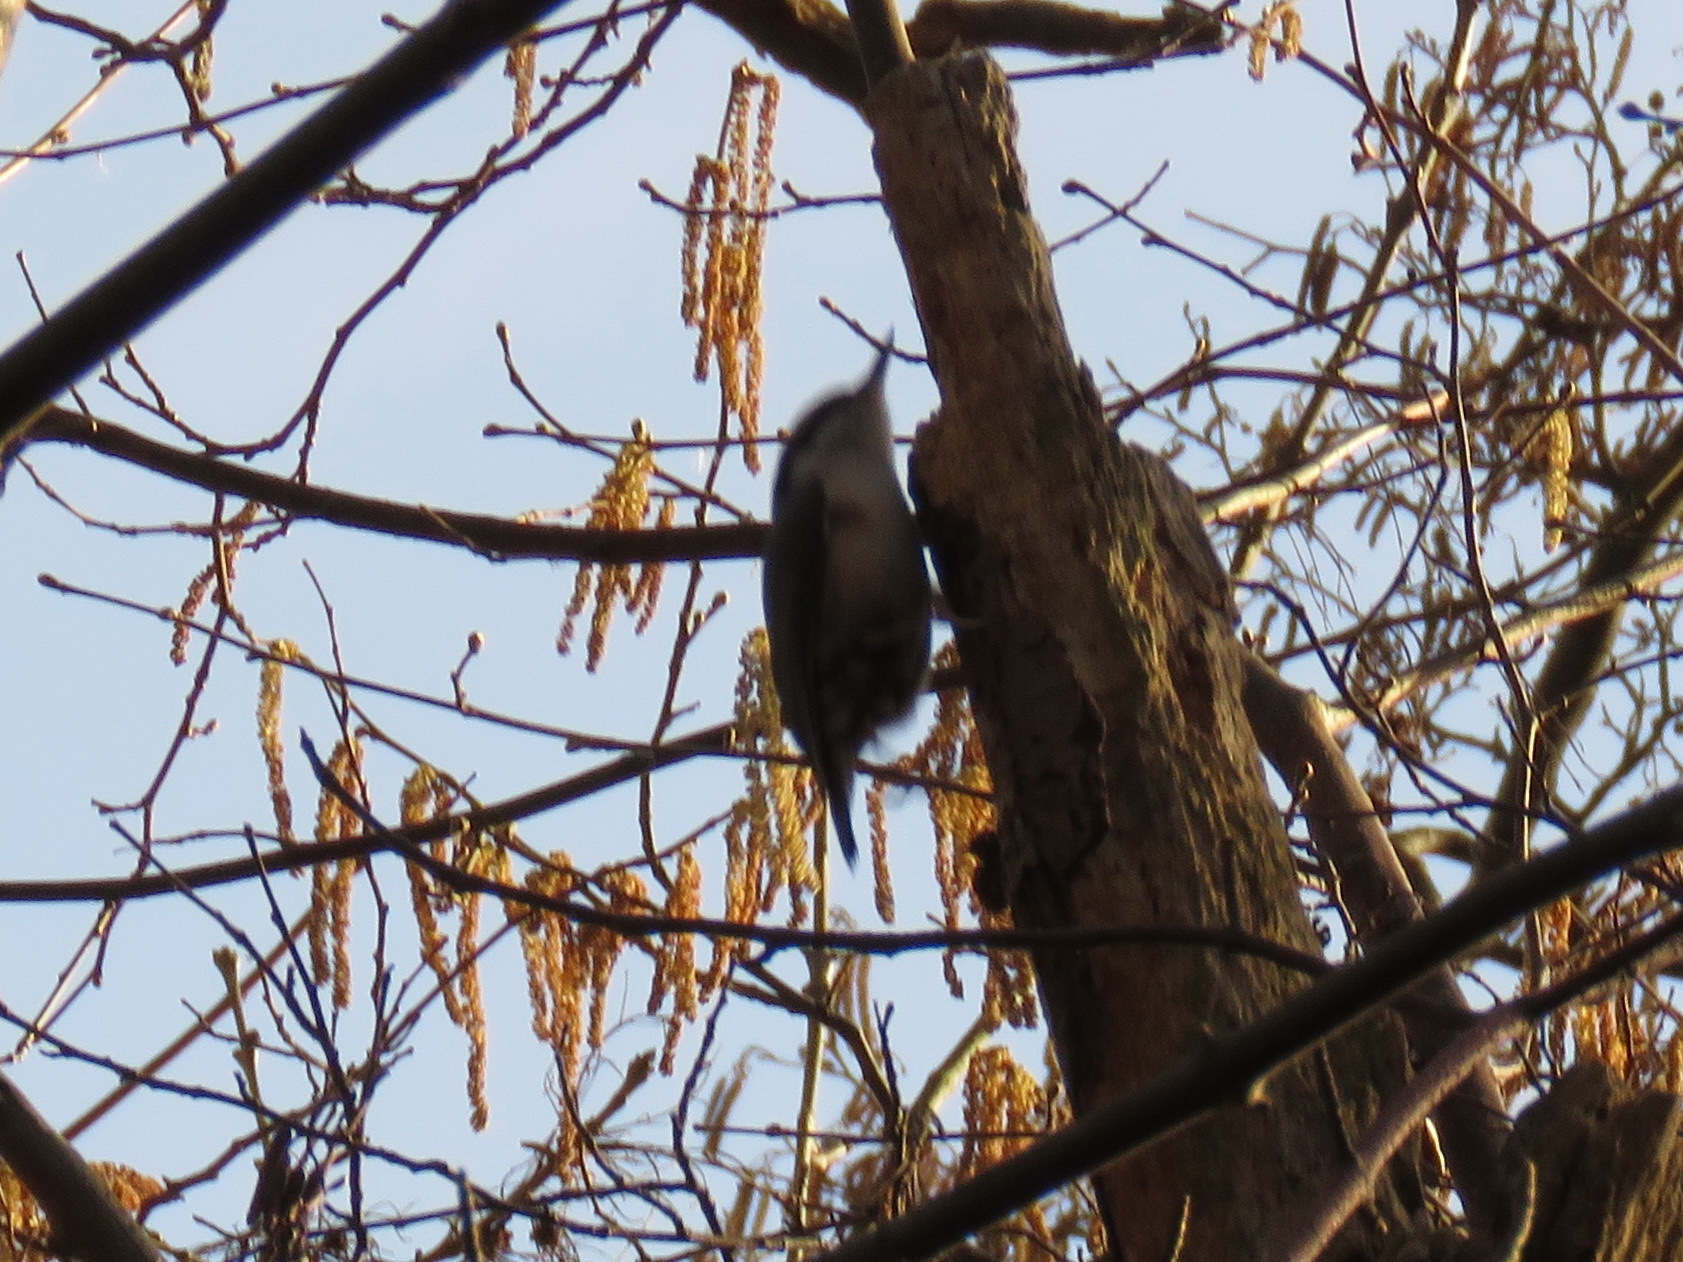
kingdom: Animalia
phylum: Chordata
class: Aves
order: Passeriformes
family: Sittidae
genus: Sitta
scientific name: Sitta europaea
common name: Eurasian nuthatch
